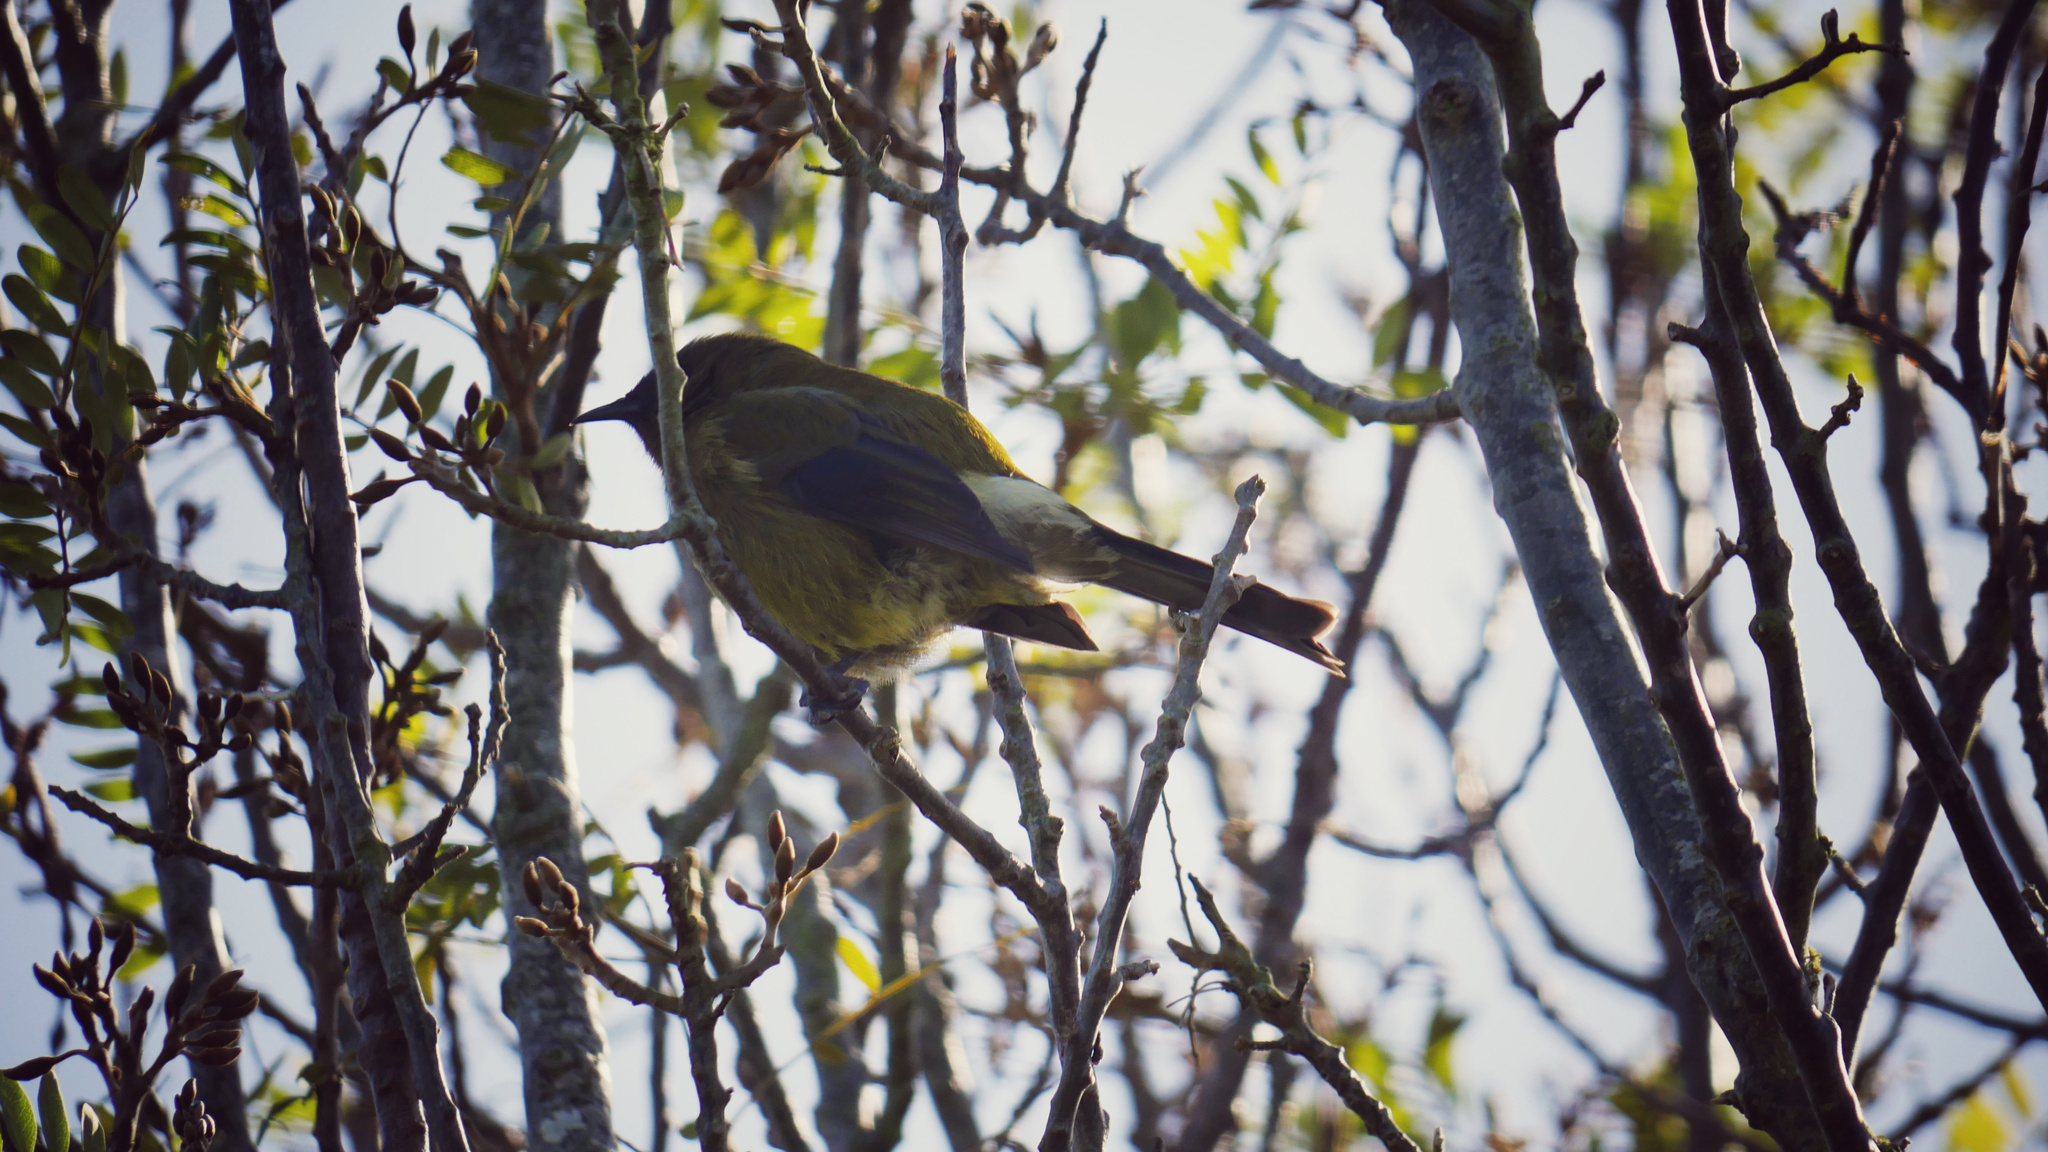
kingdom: Animalia
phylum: Chordata
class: Aves
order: Passeriformes
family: Meliphagidae
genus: Anthornis
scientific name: Anthornis melanura
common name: New zealand bellbird
